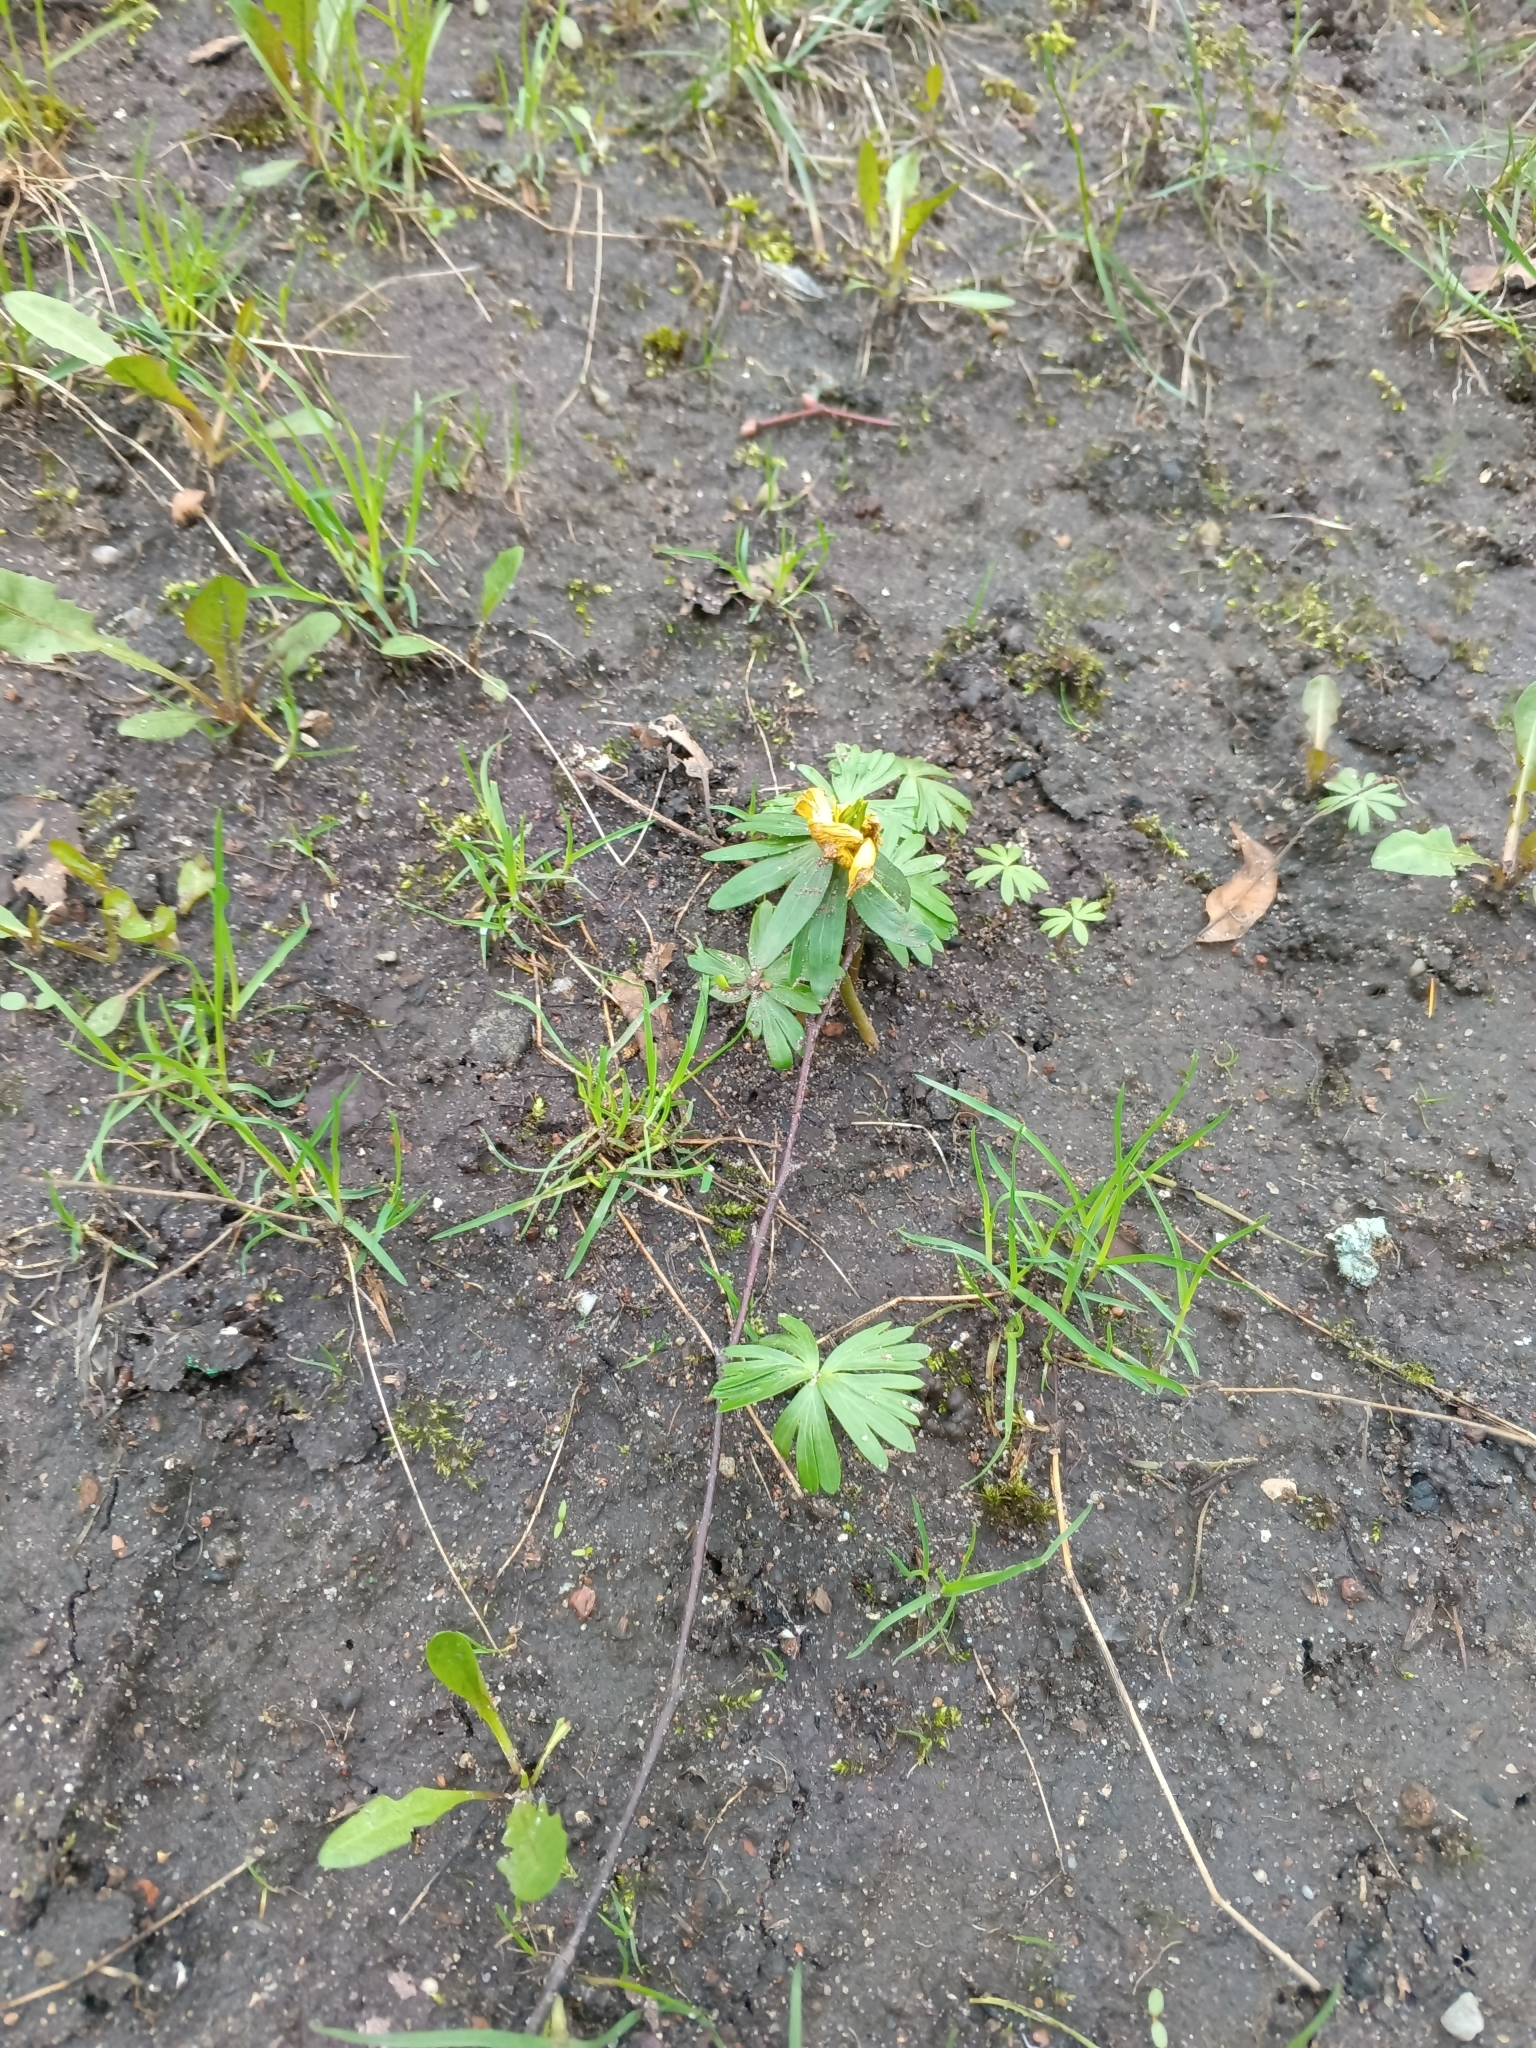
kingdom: Plantae
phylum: Tracheophyta
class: Magnoliopsida
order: Ranunculales
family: Ranunculaceae
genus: Eranthis
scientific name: Eranthis hyemalis
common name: Winter aconite
